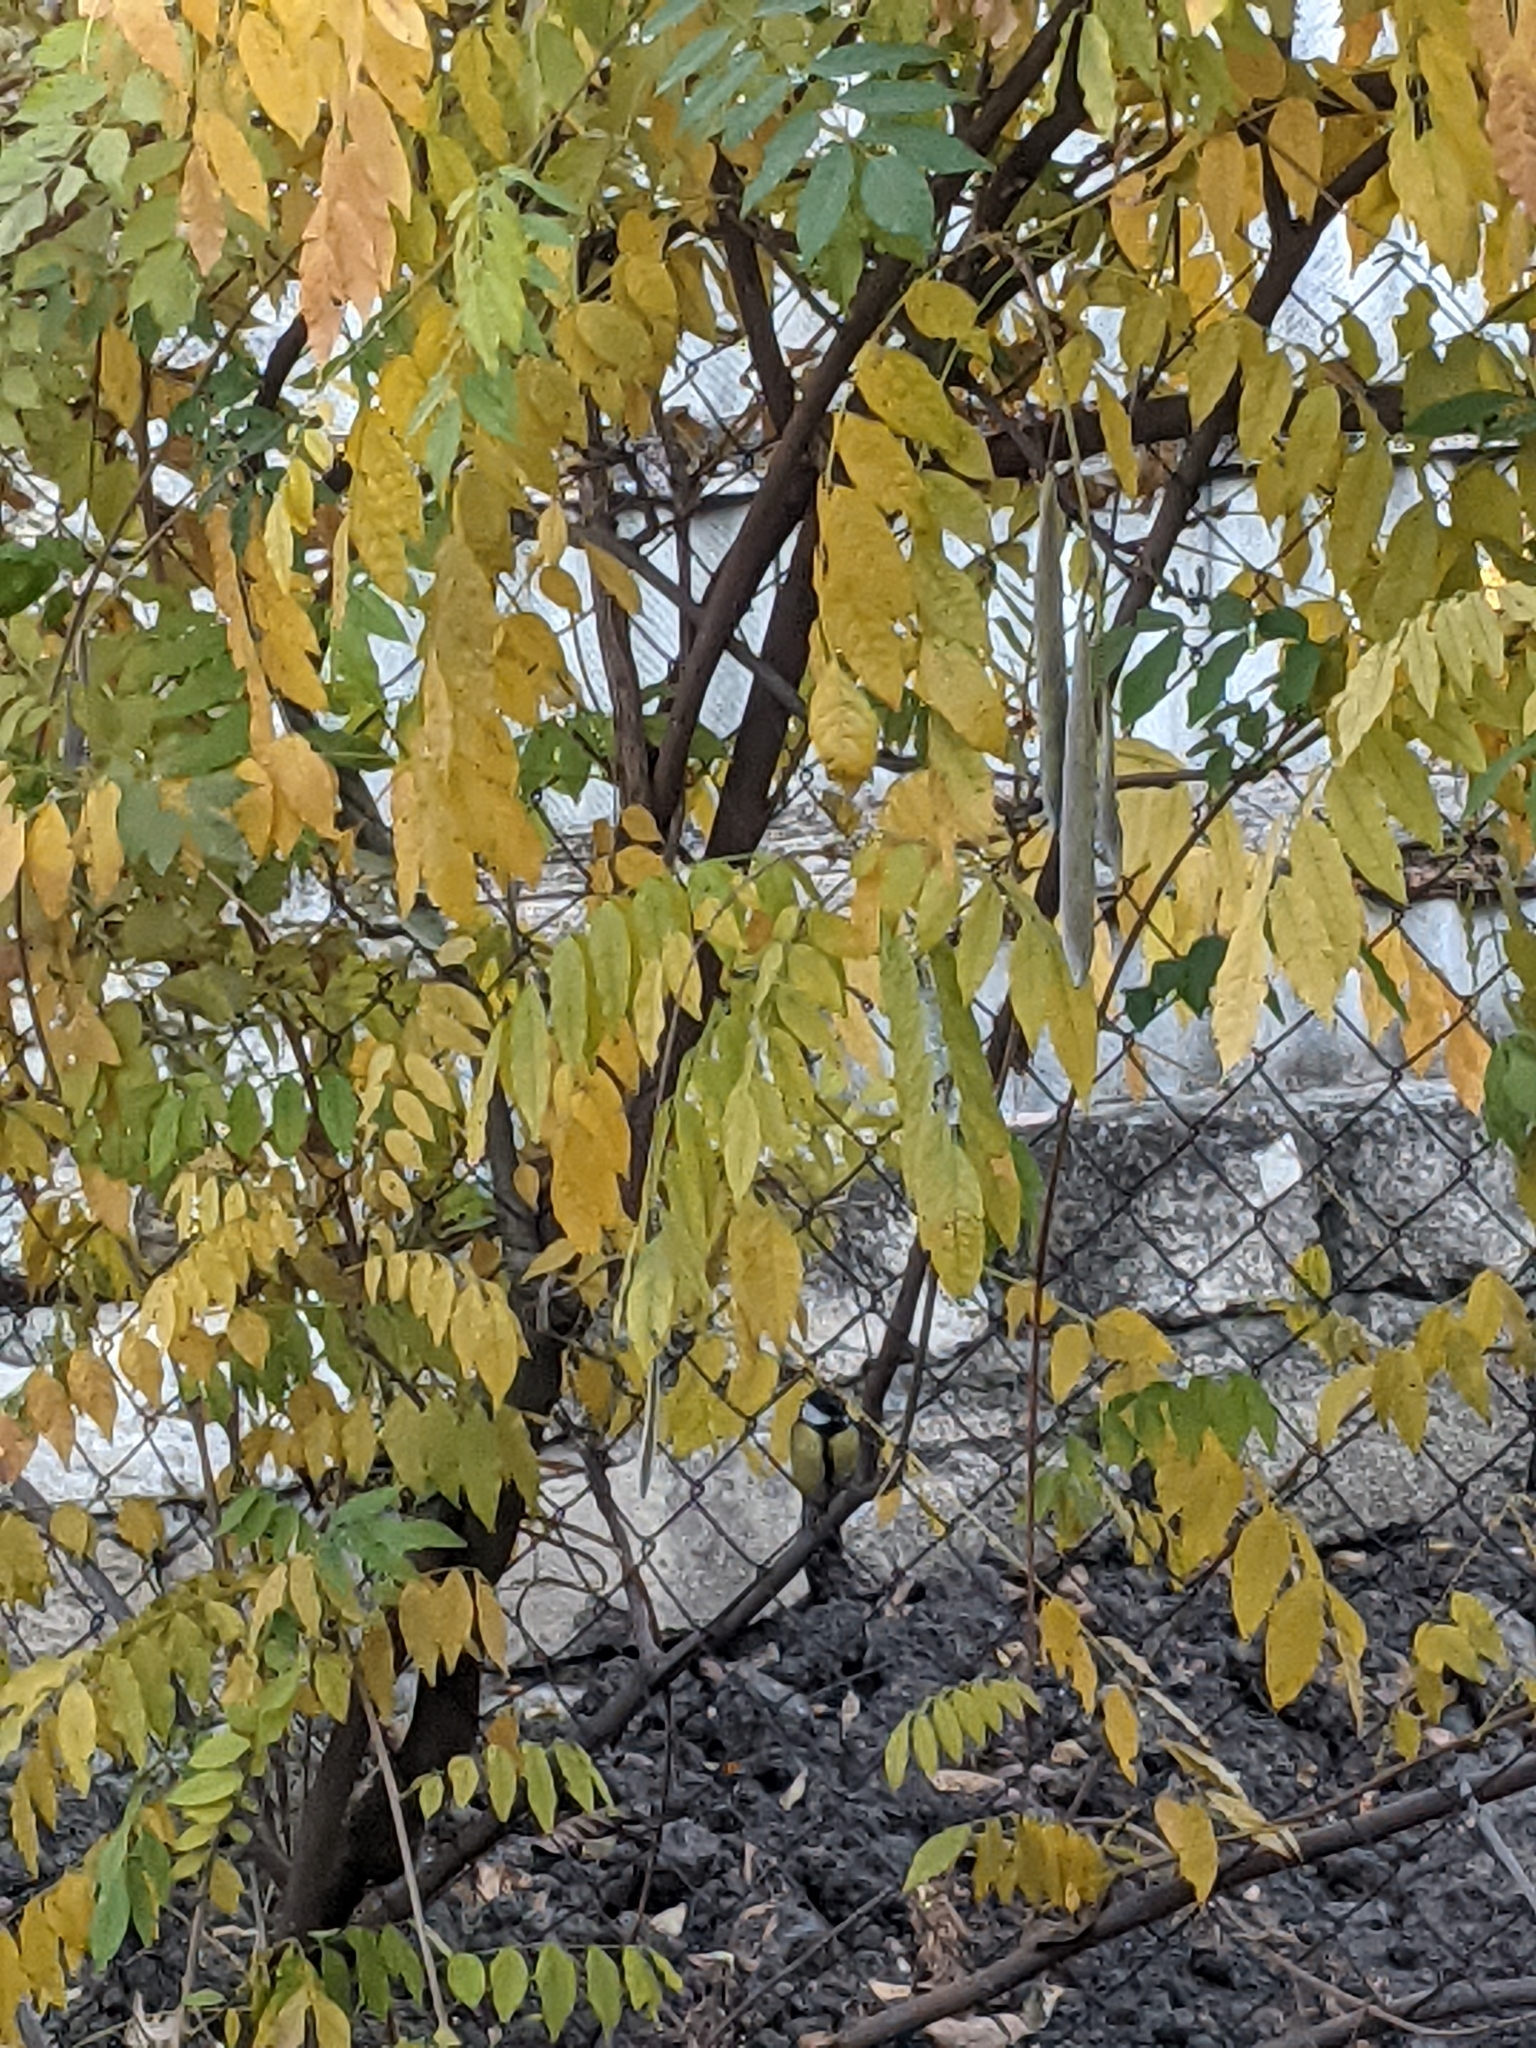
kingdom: Animalia
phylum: Chordata
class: Aves
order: Passeriformes
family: Paridae
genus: Parus
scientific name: Parus major
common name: Great tit
